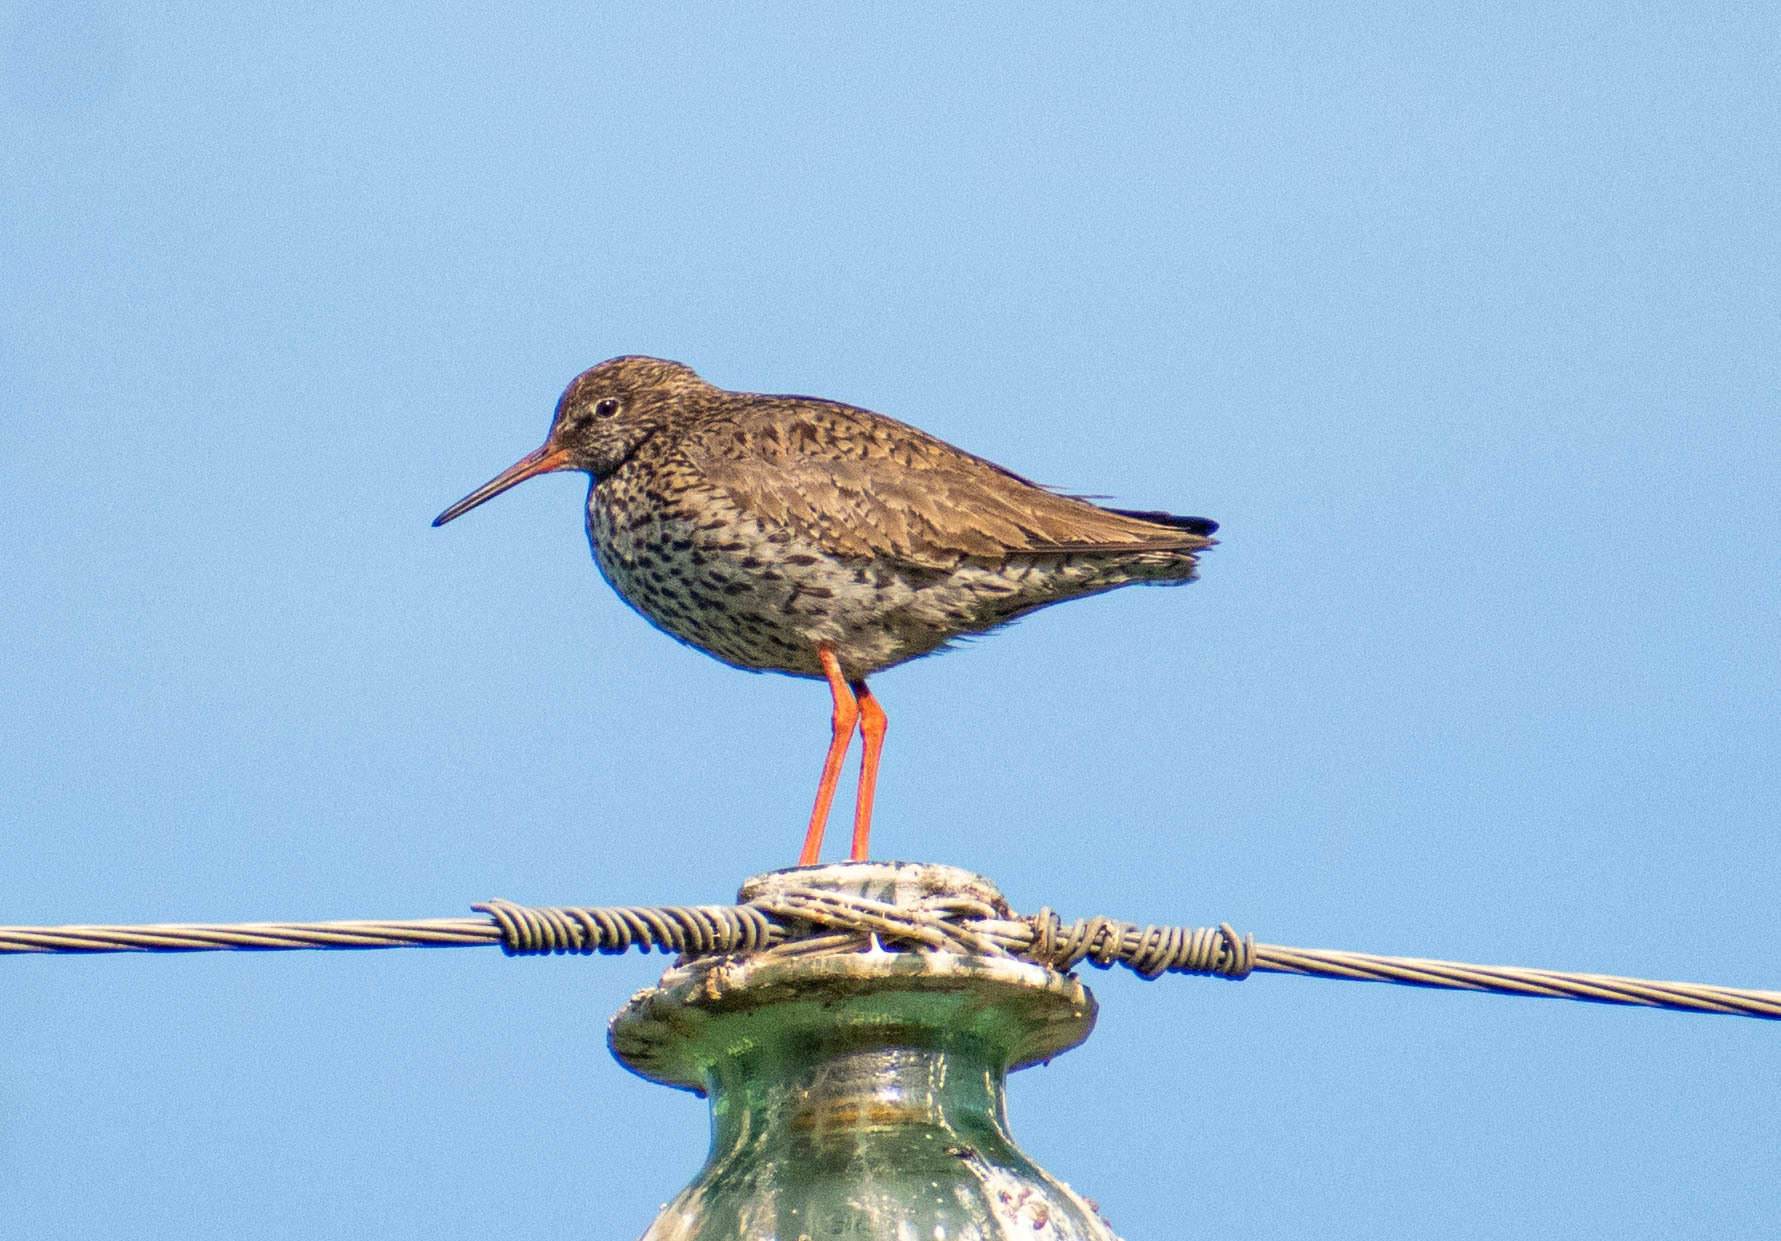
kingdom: Animalia
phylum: Chordata
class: Aves
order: Charadriiformes
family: Scolopacidae
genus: Tringa
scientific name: Tringa totanus
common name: Common redshank
